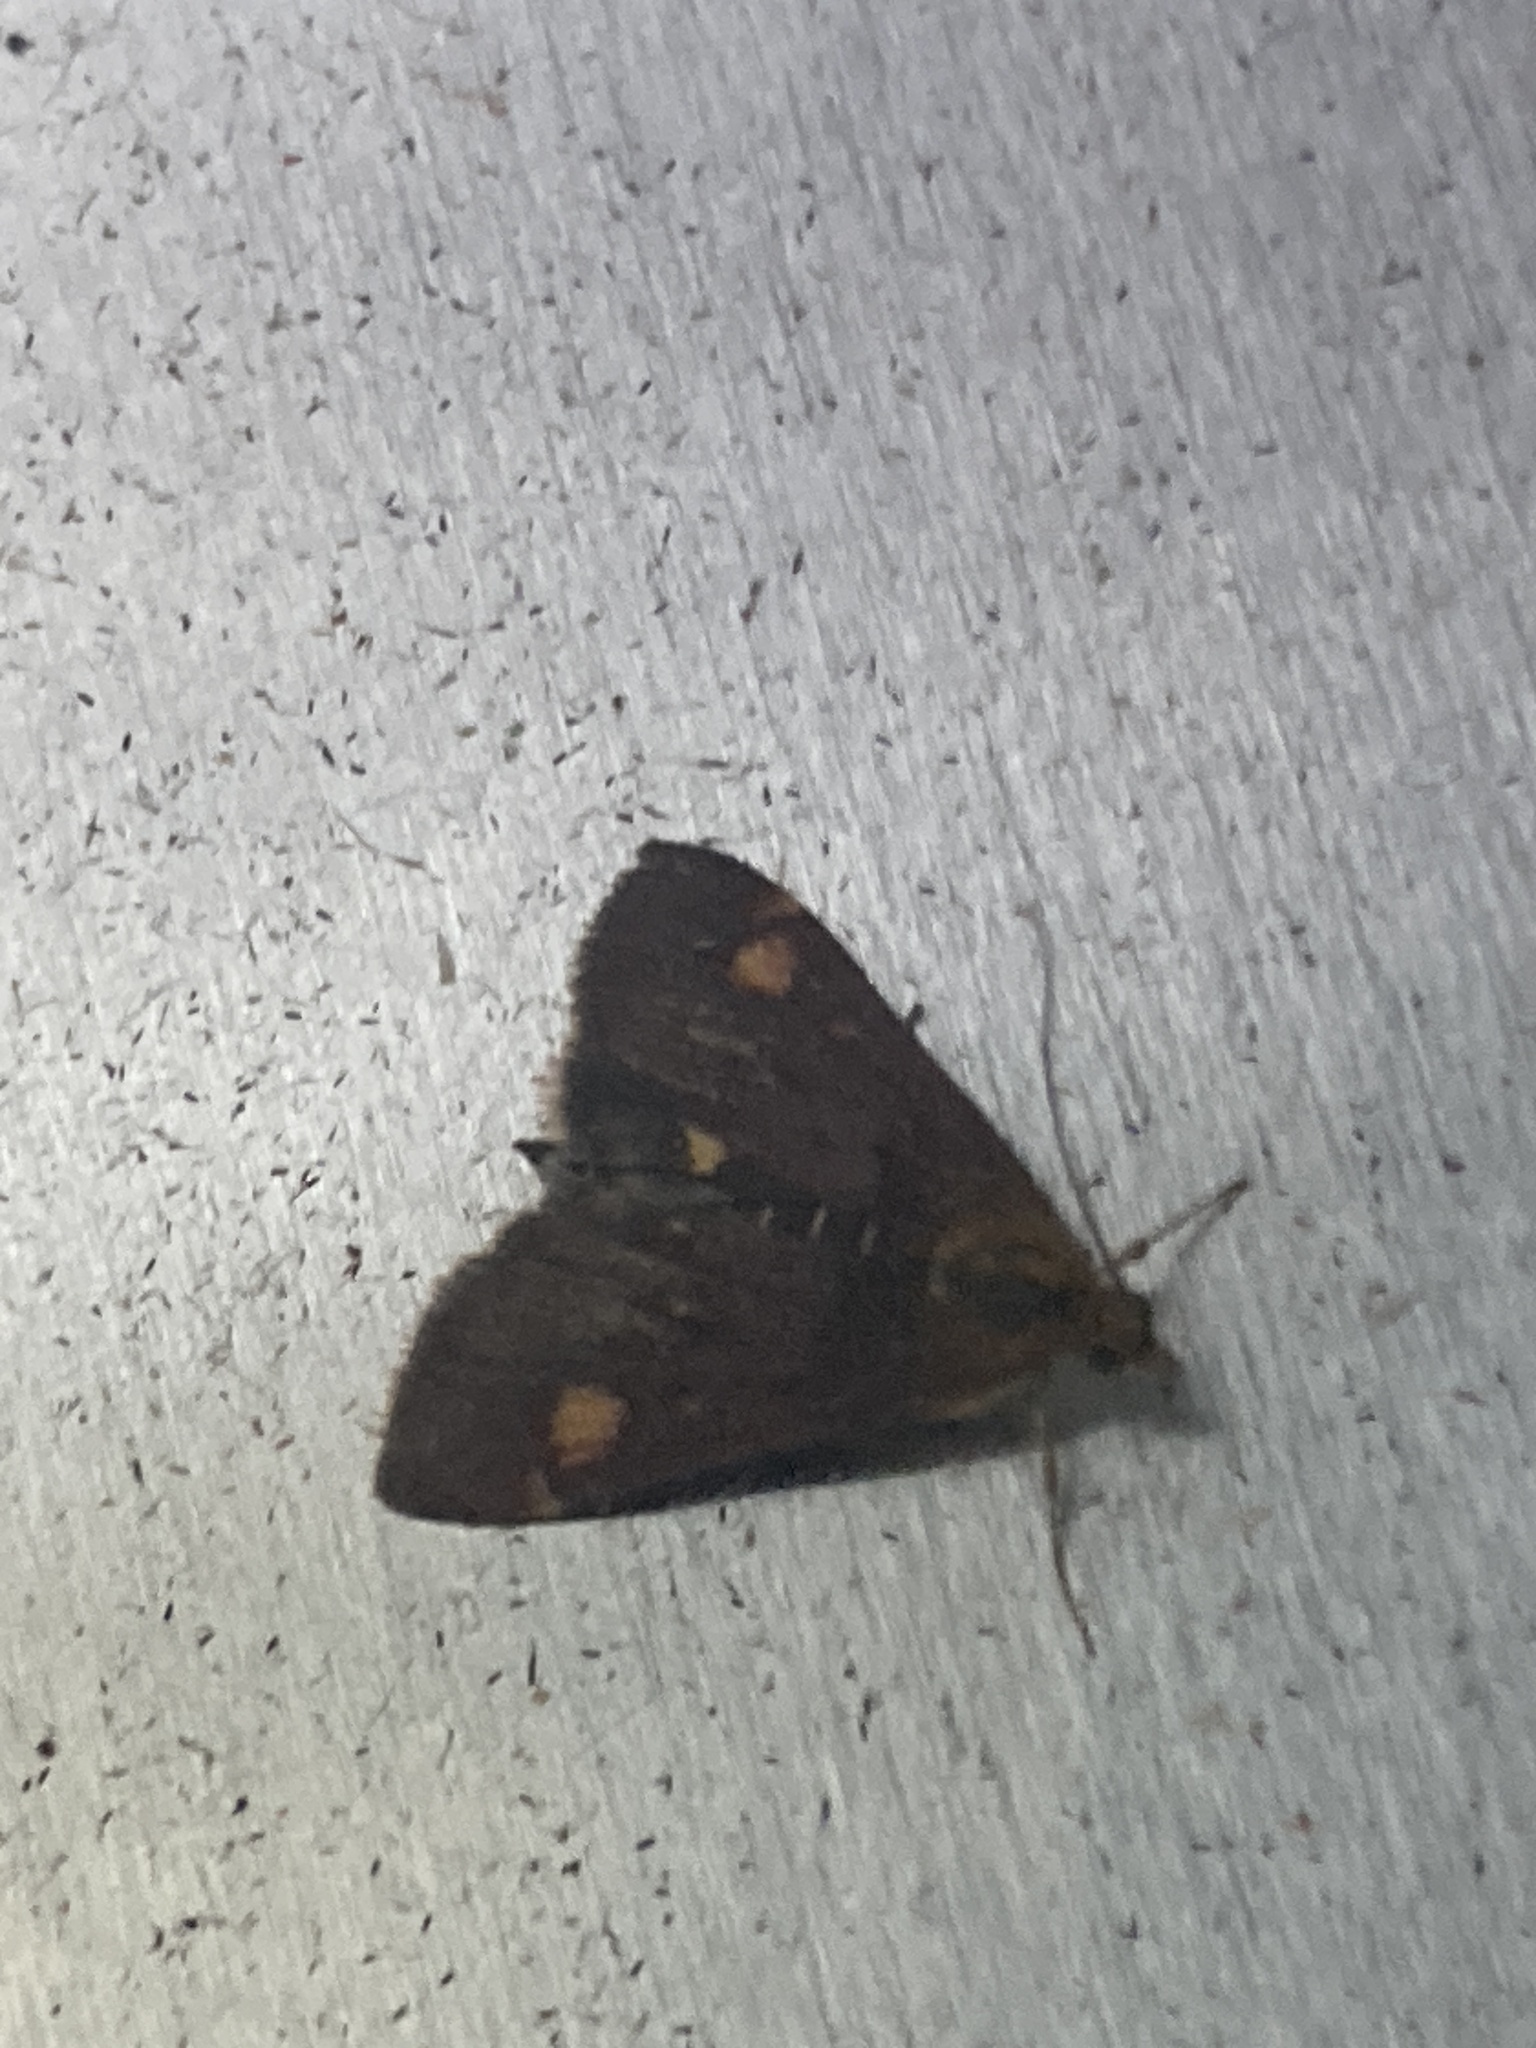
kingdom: Animalia
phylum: Arthropoda
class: Insecta
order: Lepidoptera
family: Crambidae
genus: Pyrausta
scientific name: Pyrausta aurata
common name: Small purple & gold
